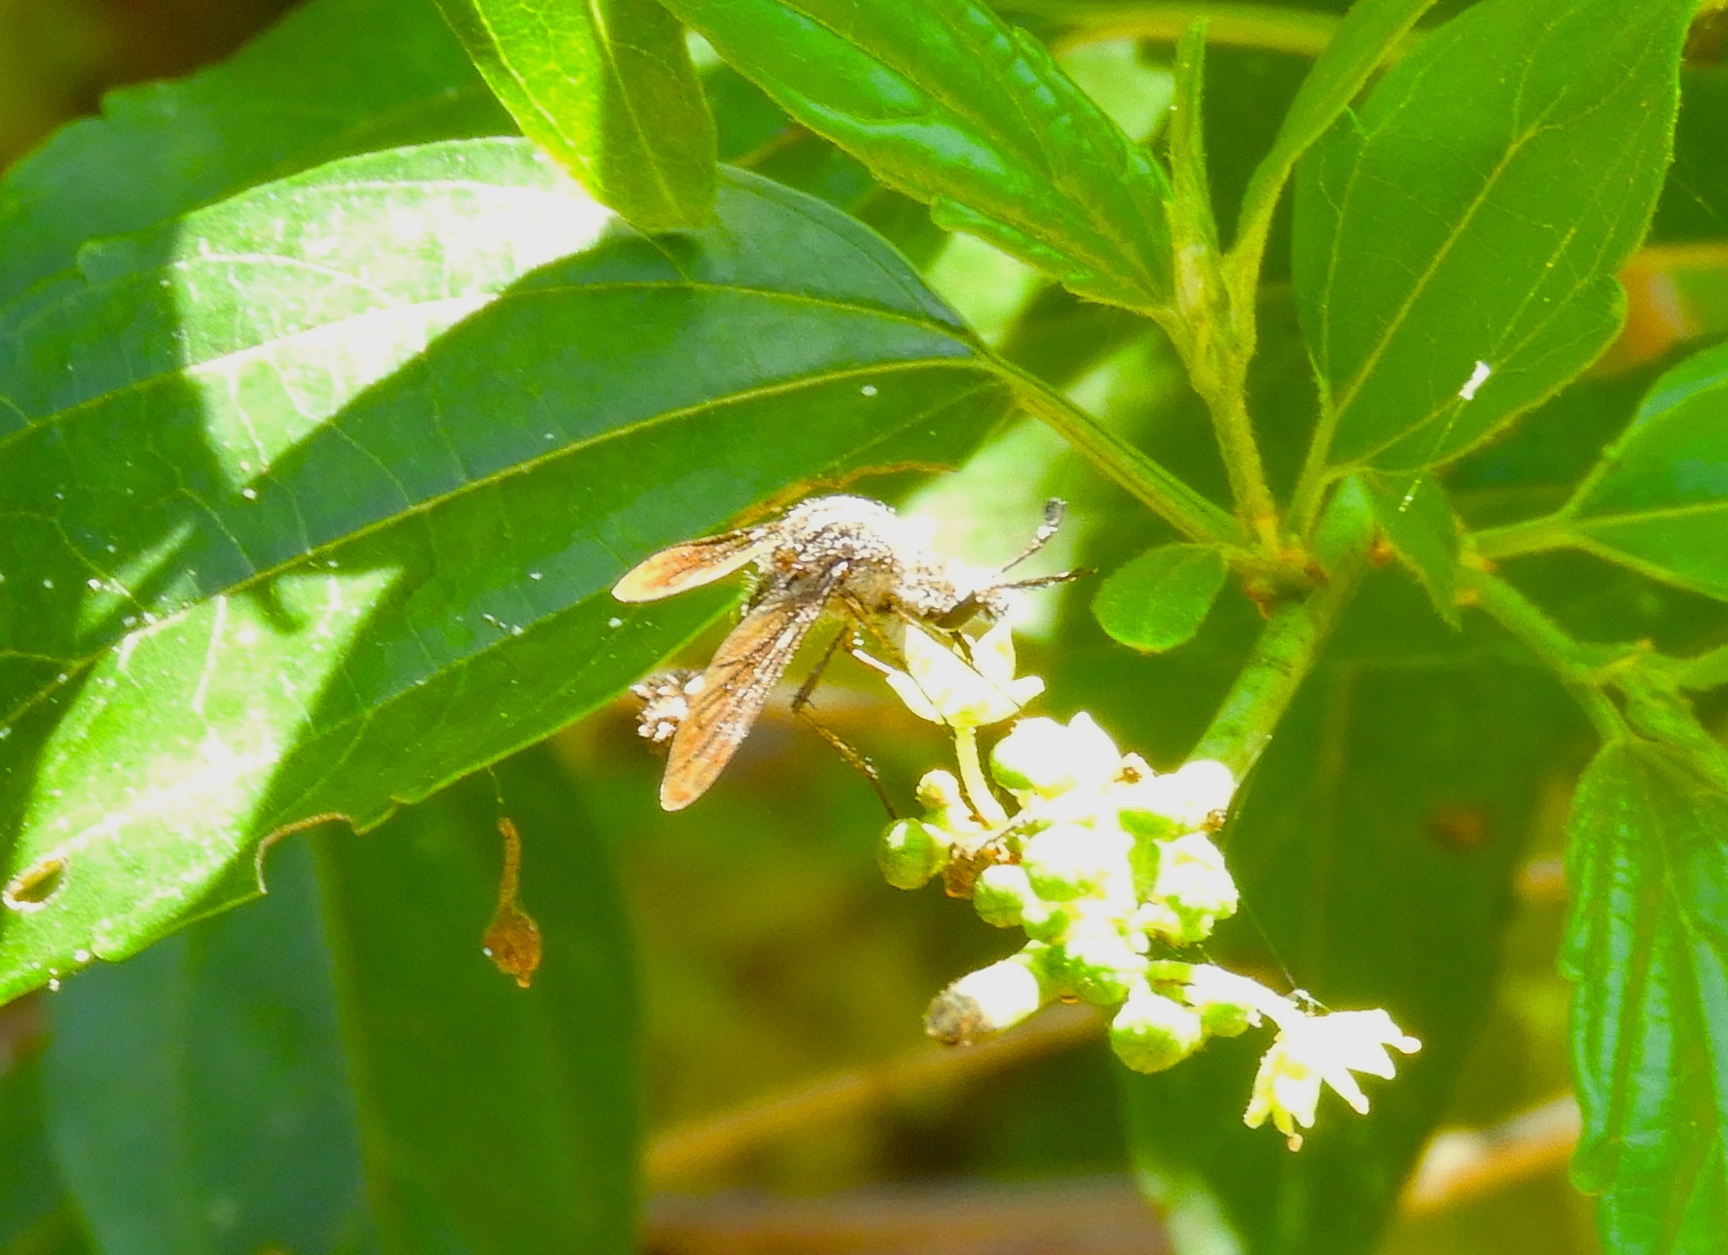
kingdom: Animalia
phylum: Arthropoda
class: Insecta
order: Diptera
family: Bombyliidae
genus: Lepidophora
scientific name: Lepidophora vetusta
